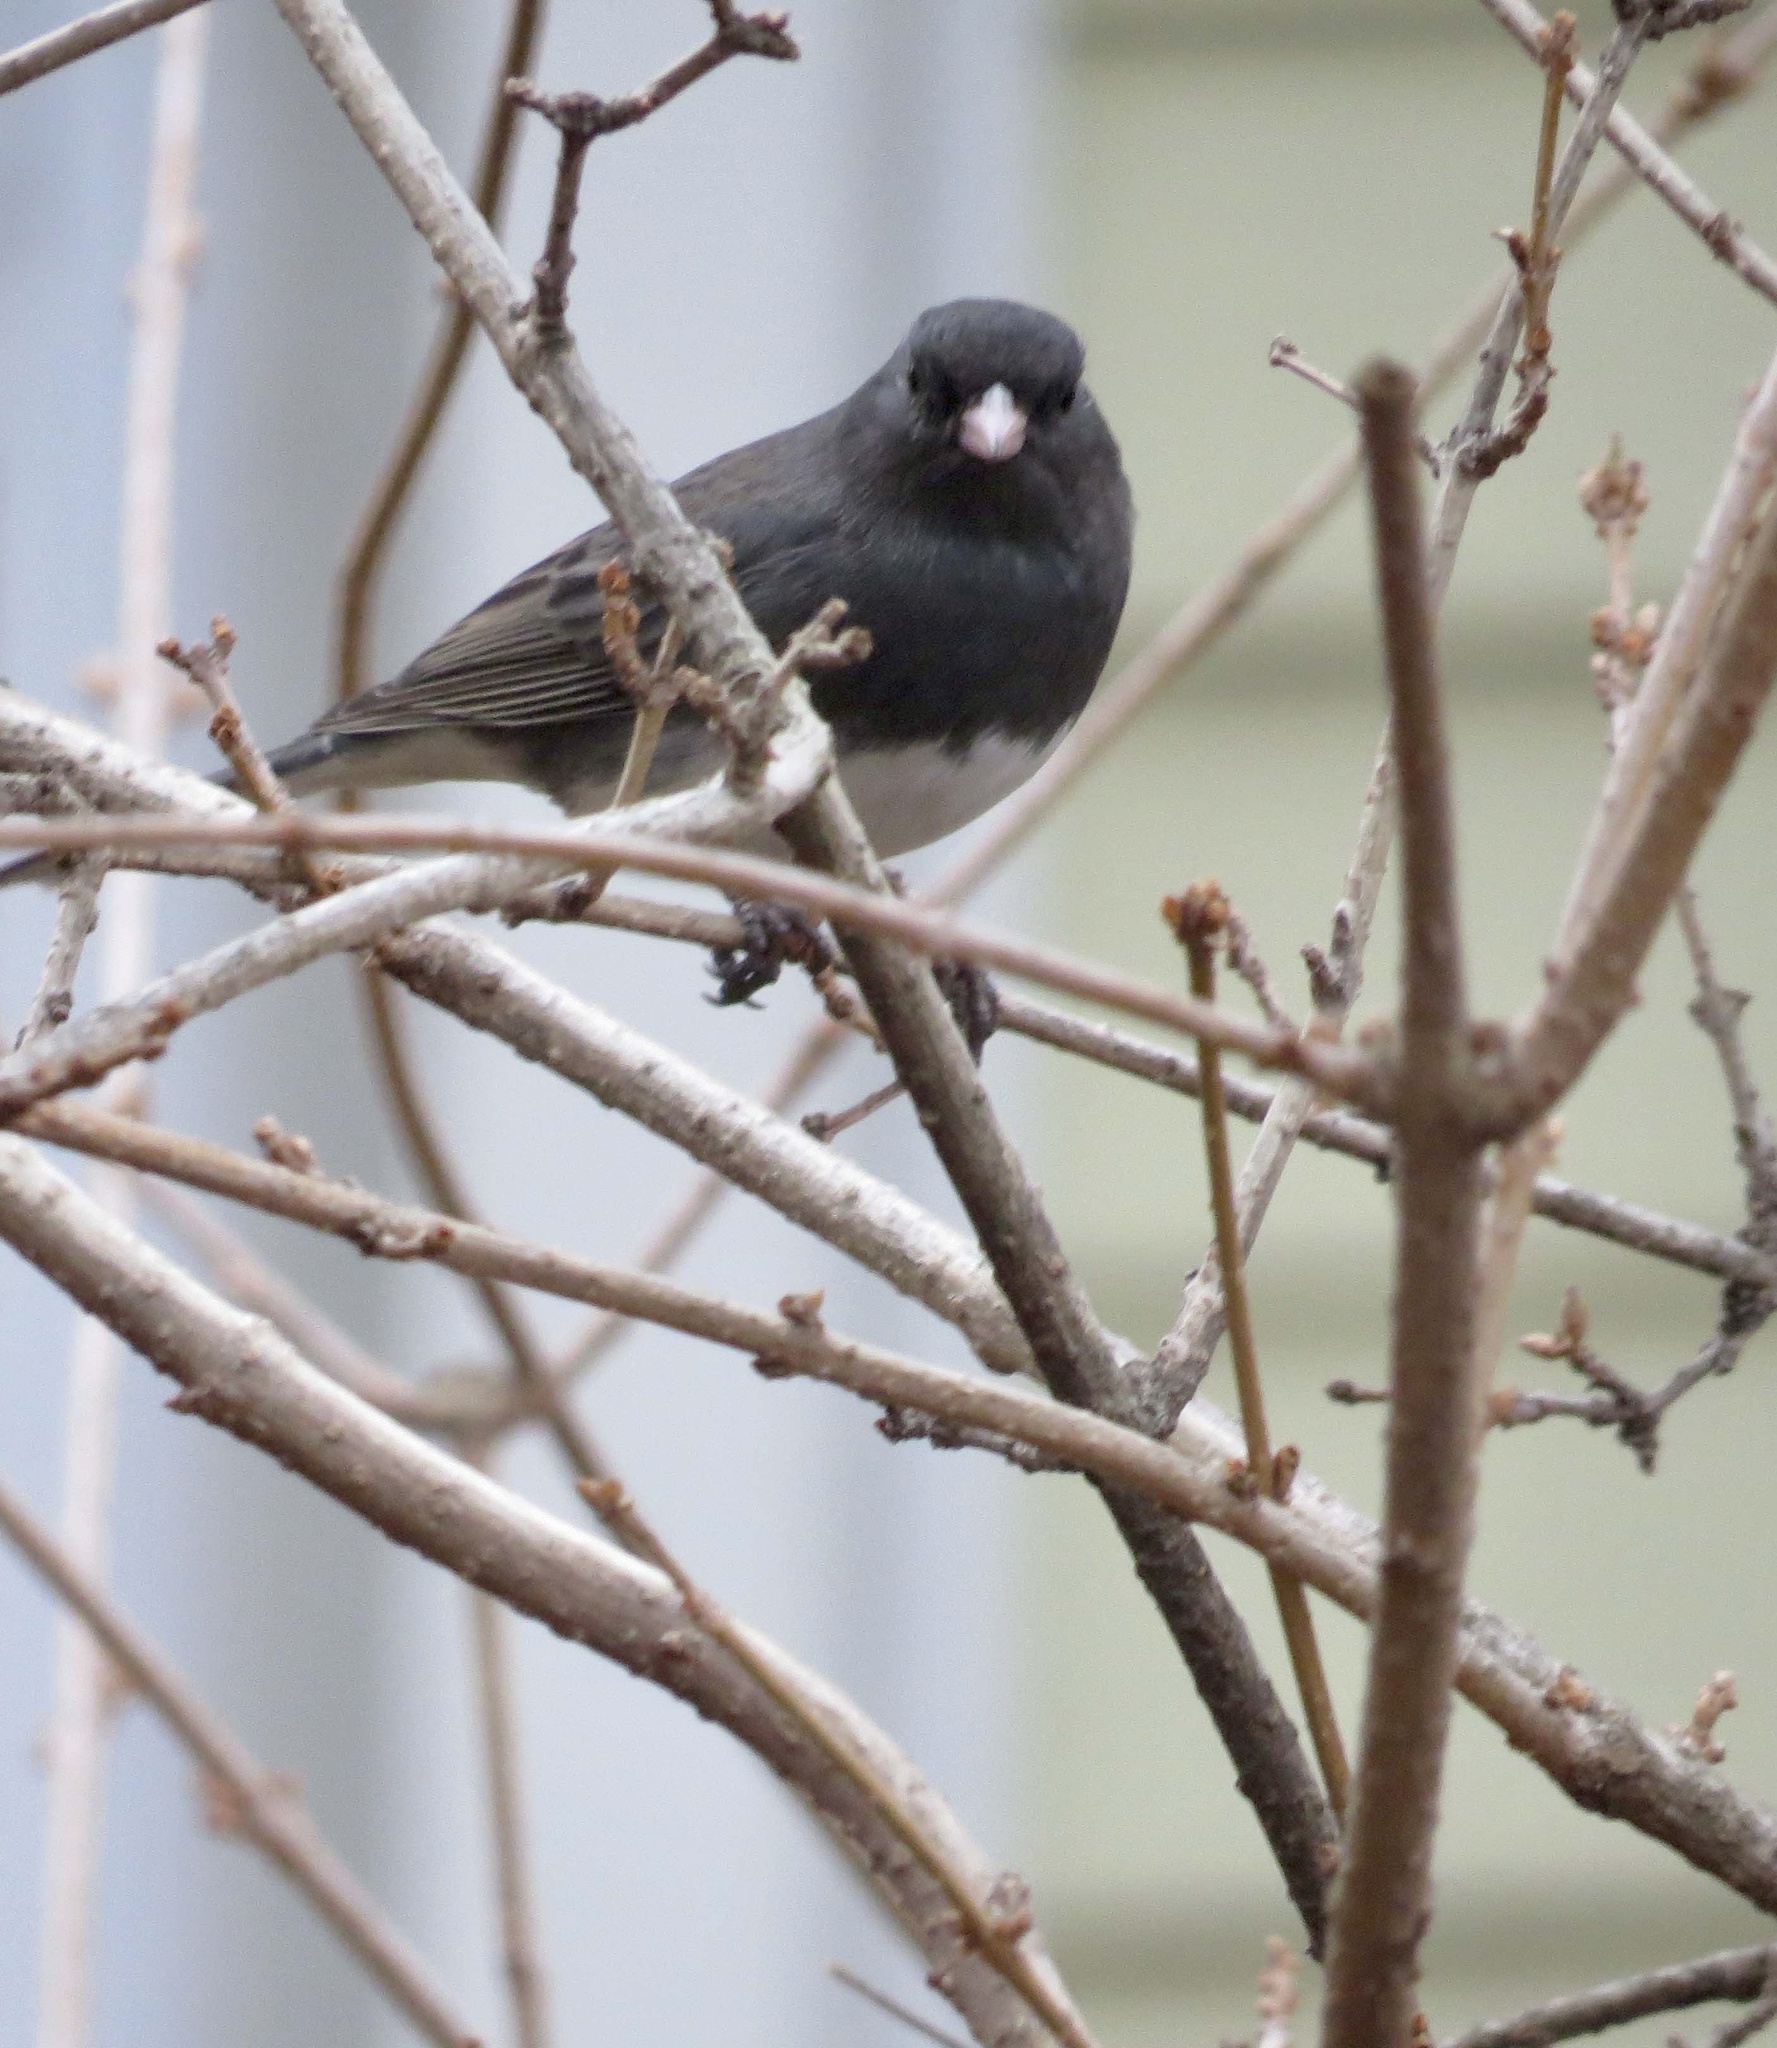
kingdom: Animalia
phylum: Chordata
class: Aves
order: Passeriformes
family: Passerellidae
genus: Junco
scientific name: Junco hyemalis
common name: Dark-eyed junco
